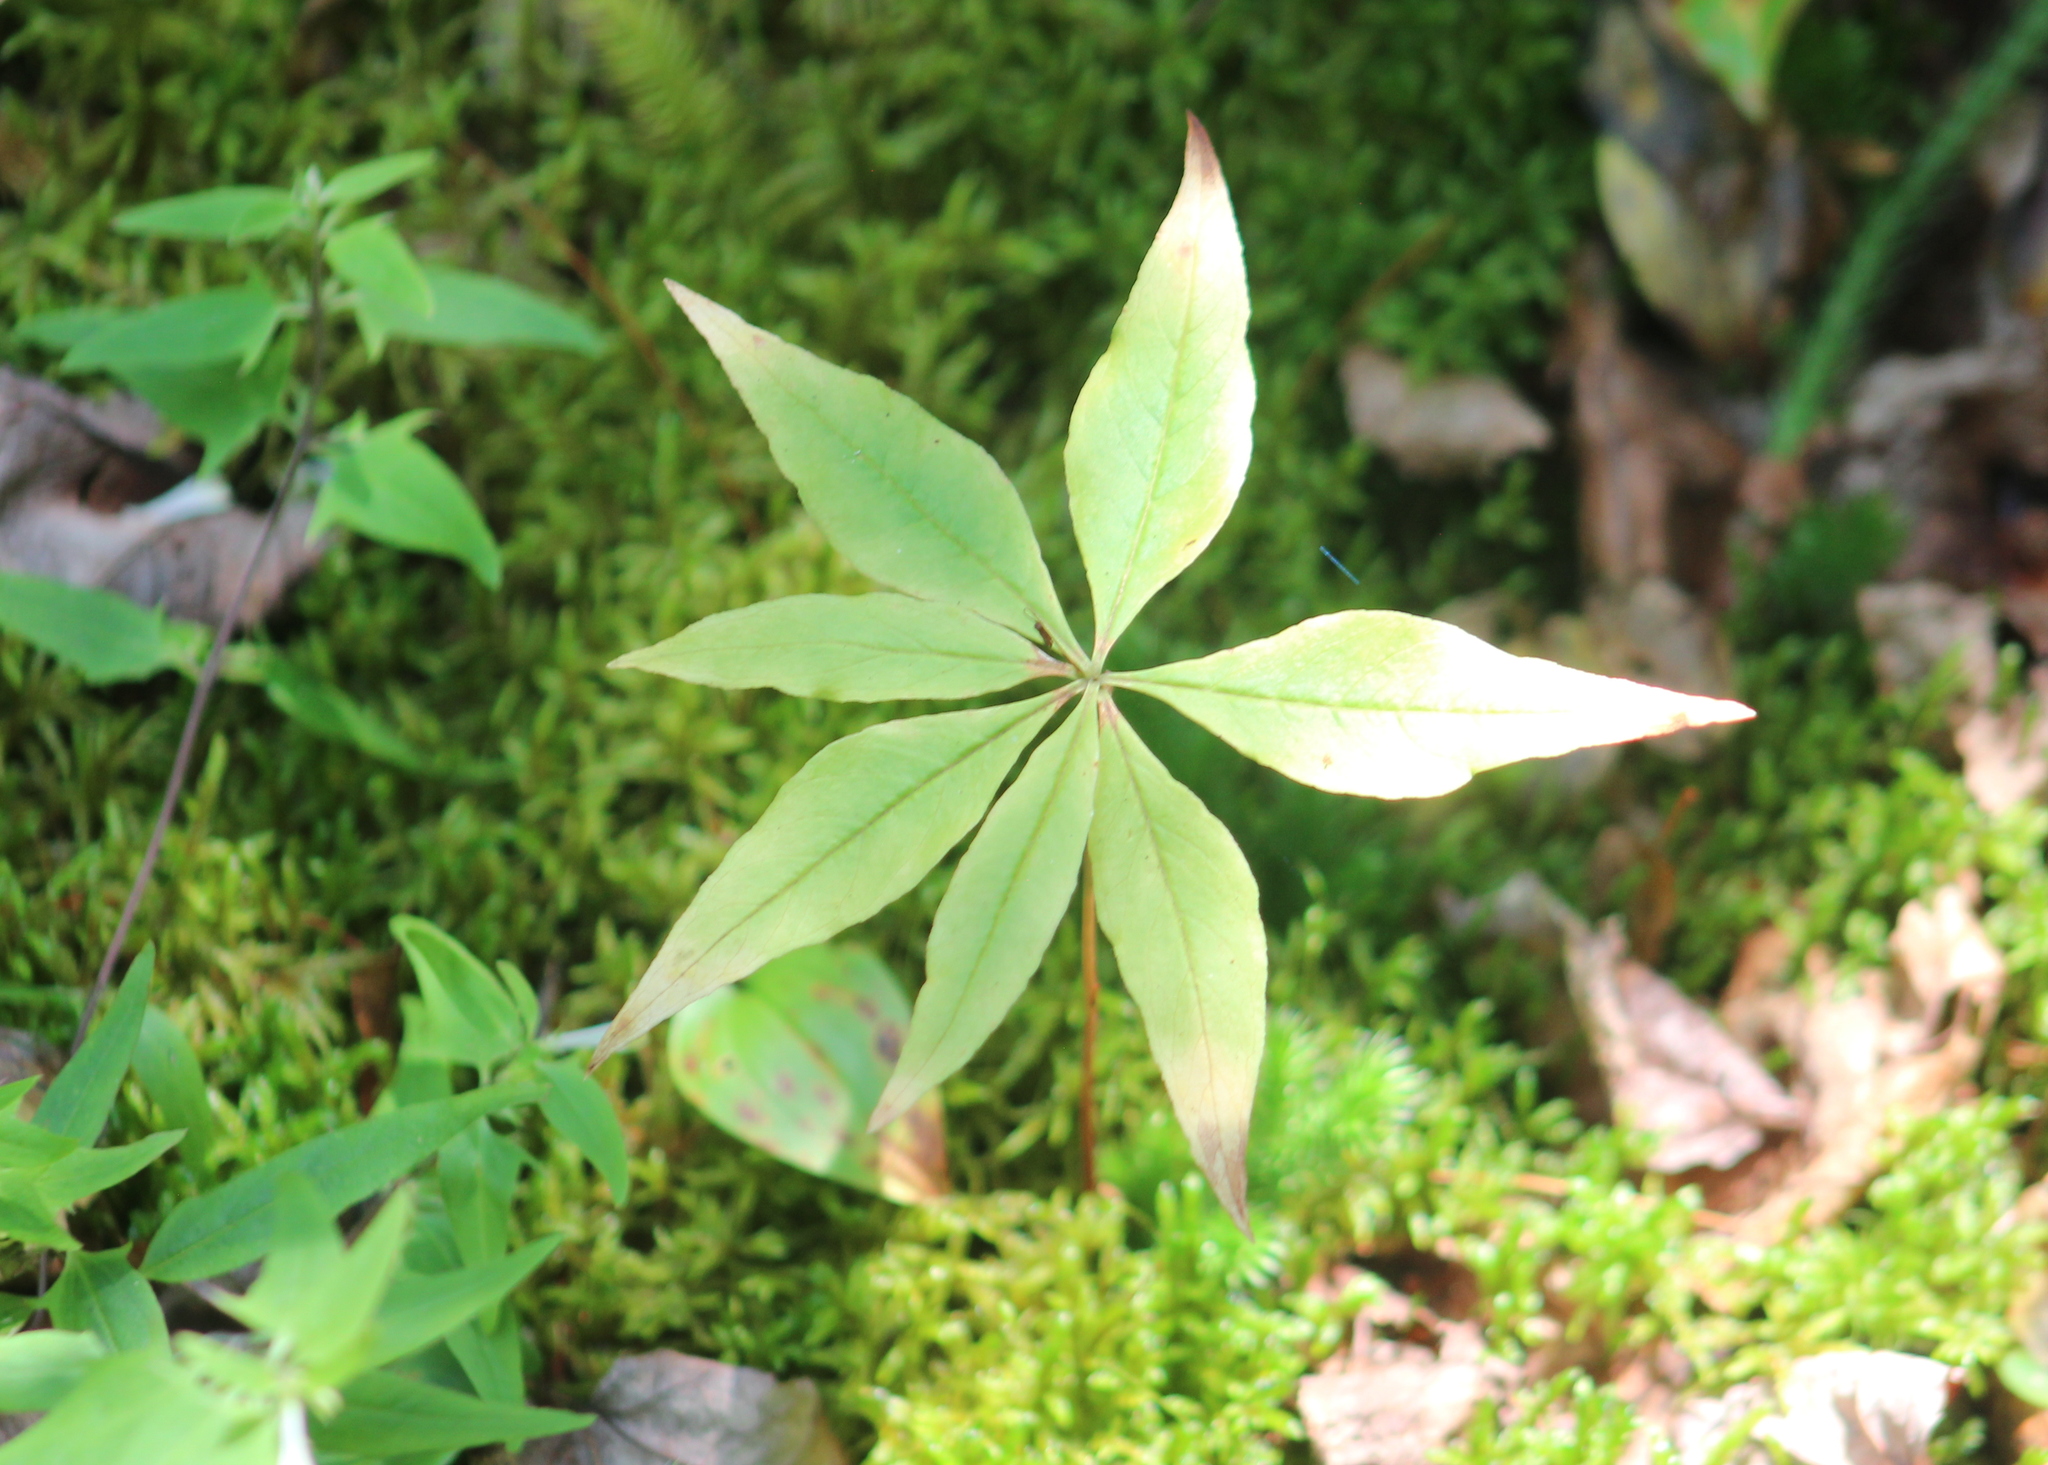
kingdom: Plantae
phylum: Tracheophyta
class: Magnoliopsida
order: Ericales
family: Primulaceae
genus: Lysimachia
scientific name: Lysimachia borealis
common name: American starflower
